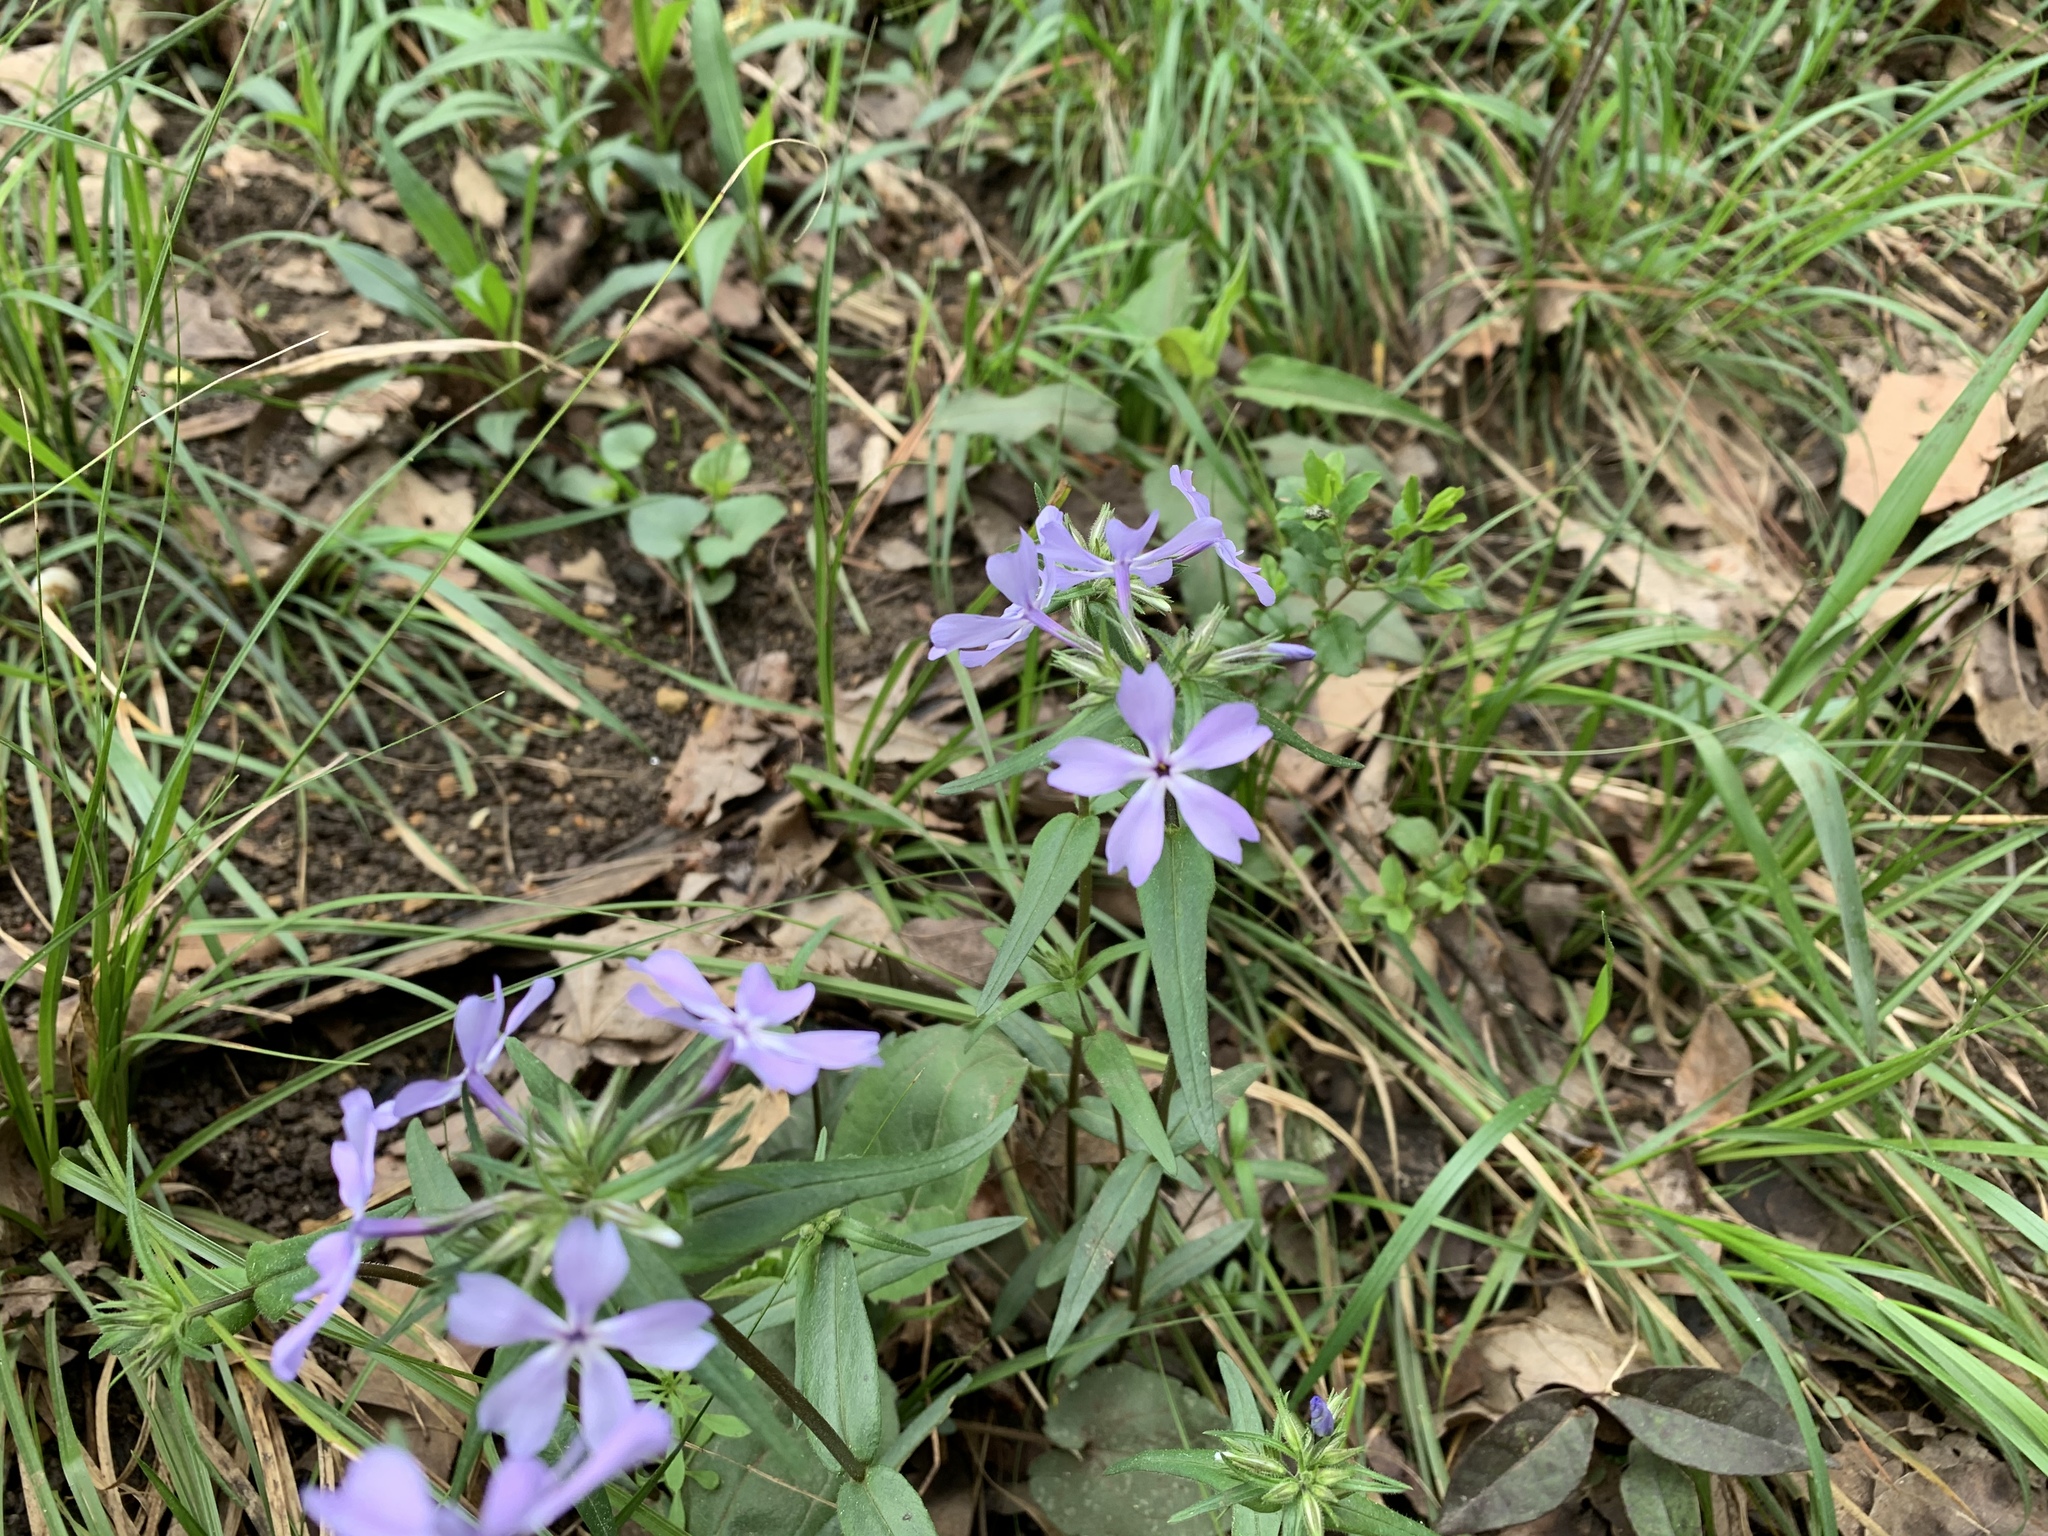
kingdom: Plantae
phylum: Tracheophyta
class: Magnoliopsida
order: Ericales
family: Polemoniaceae
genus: Phlox
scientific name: Phlox divaricata
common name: Blue phlox
